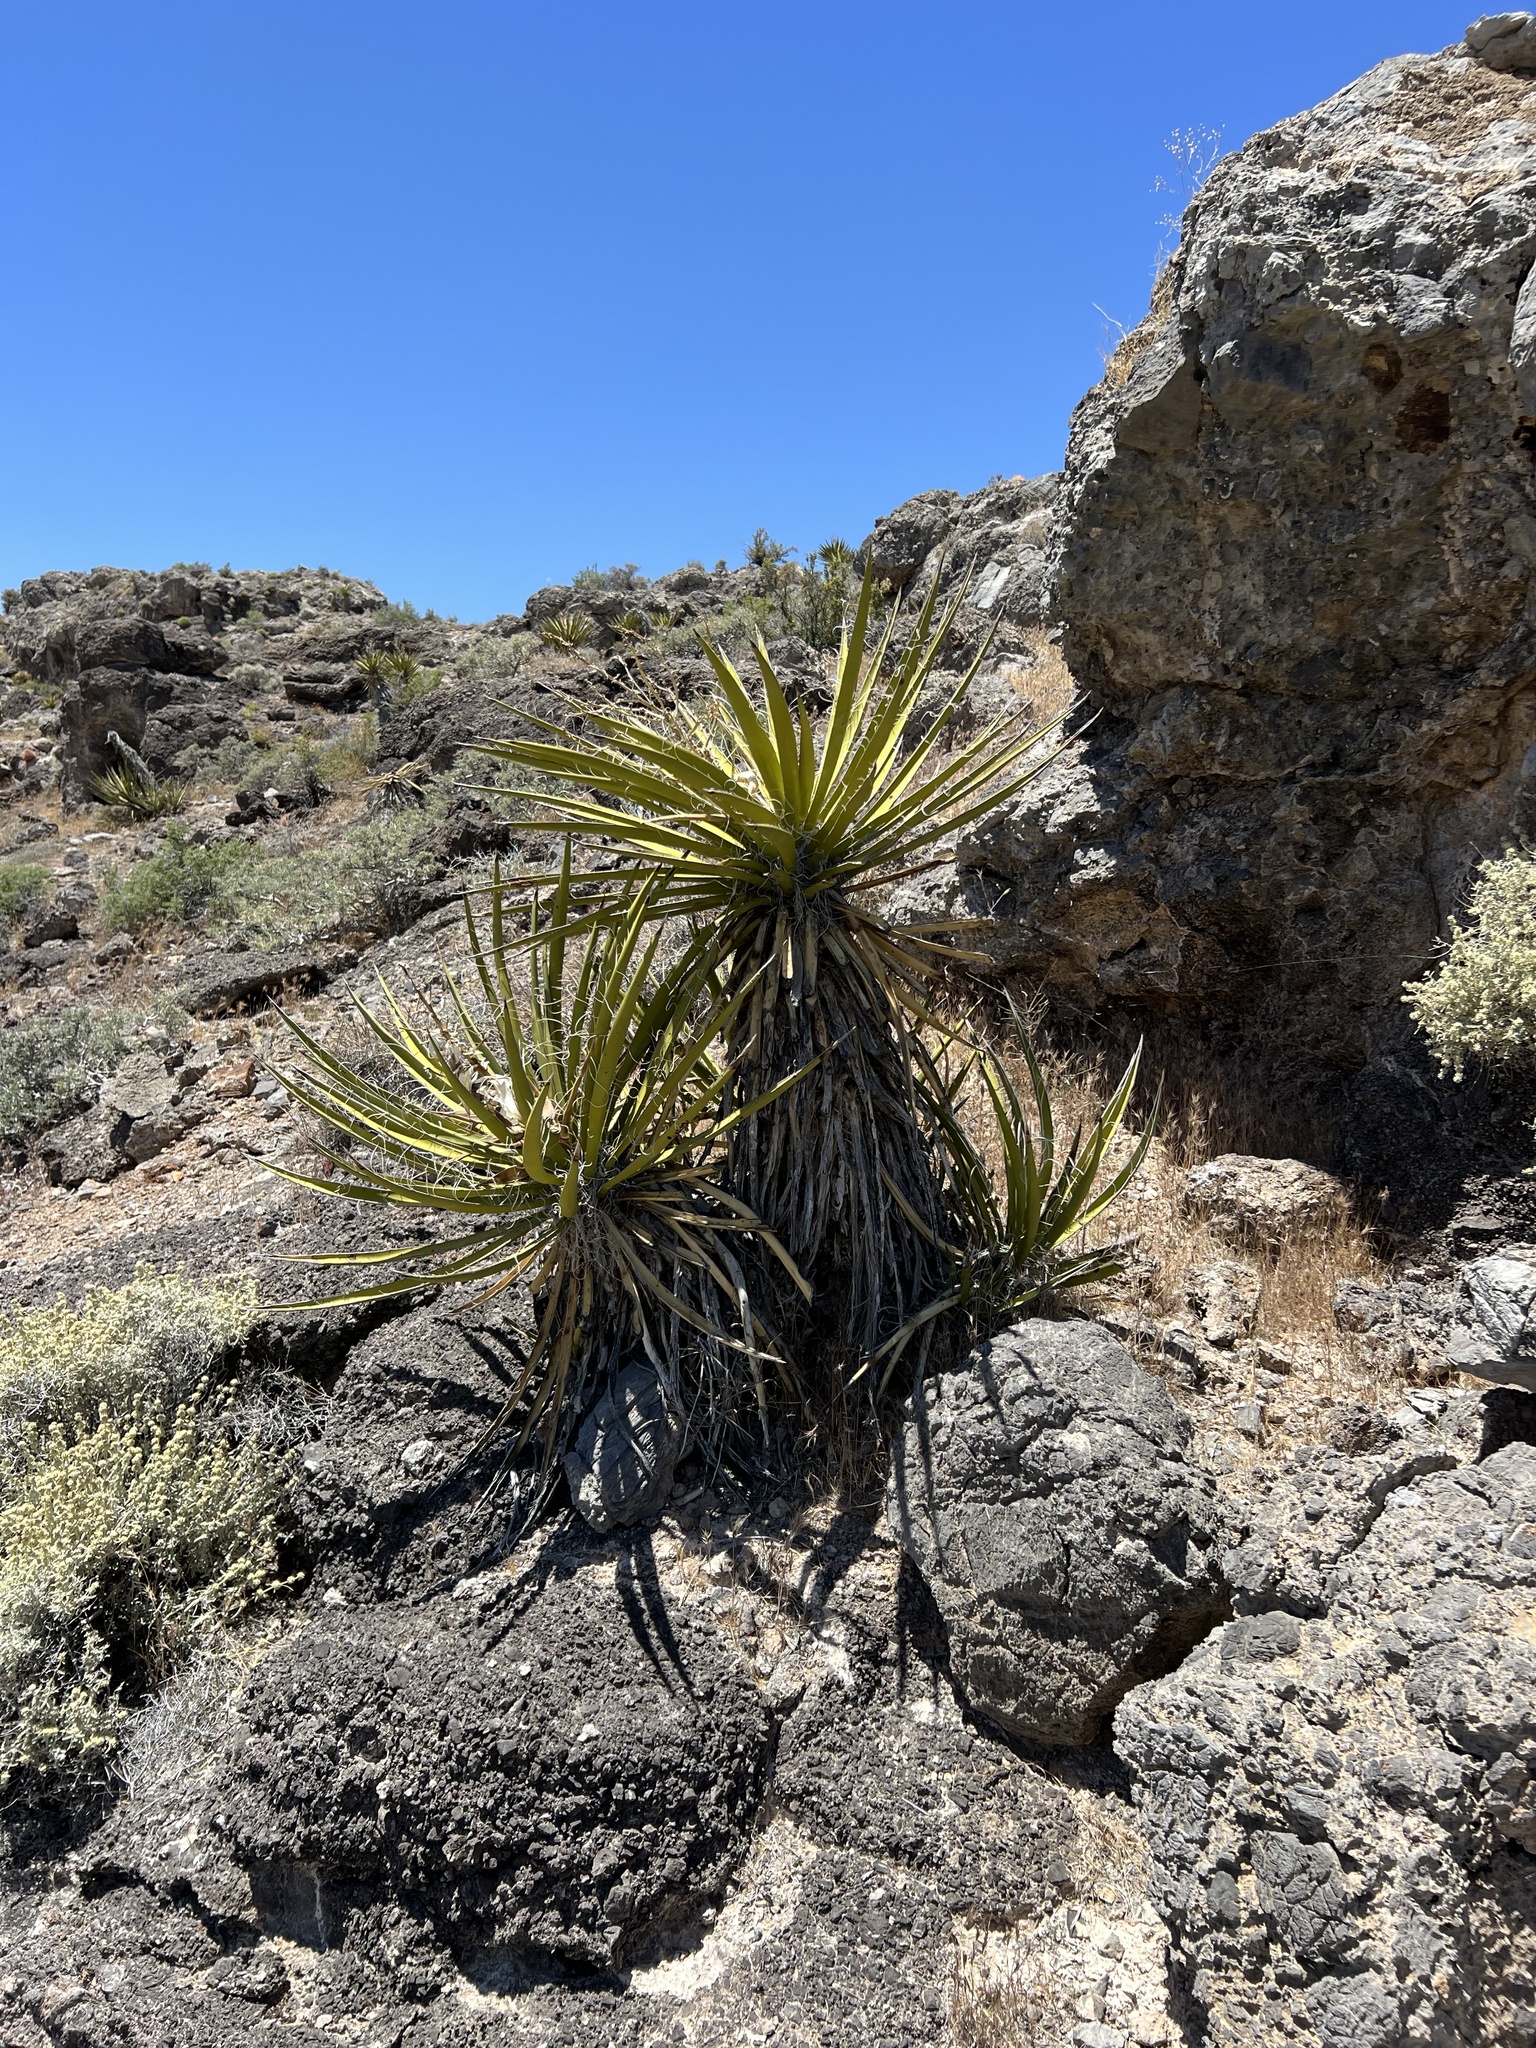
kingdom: Plantae
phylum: Tracheophyta
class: Liliopsida
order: Asparagales
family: Asparagaceae
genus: Yucca
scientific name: Yucca schidigera
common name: Mojave yucca
